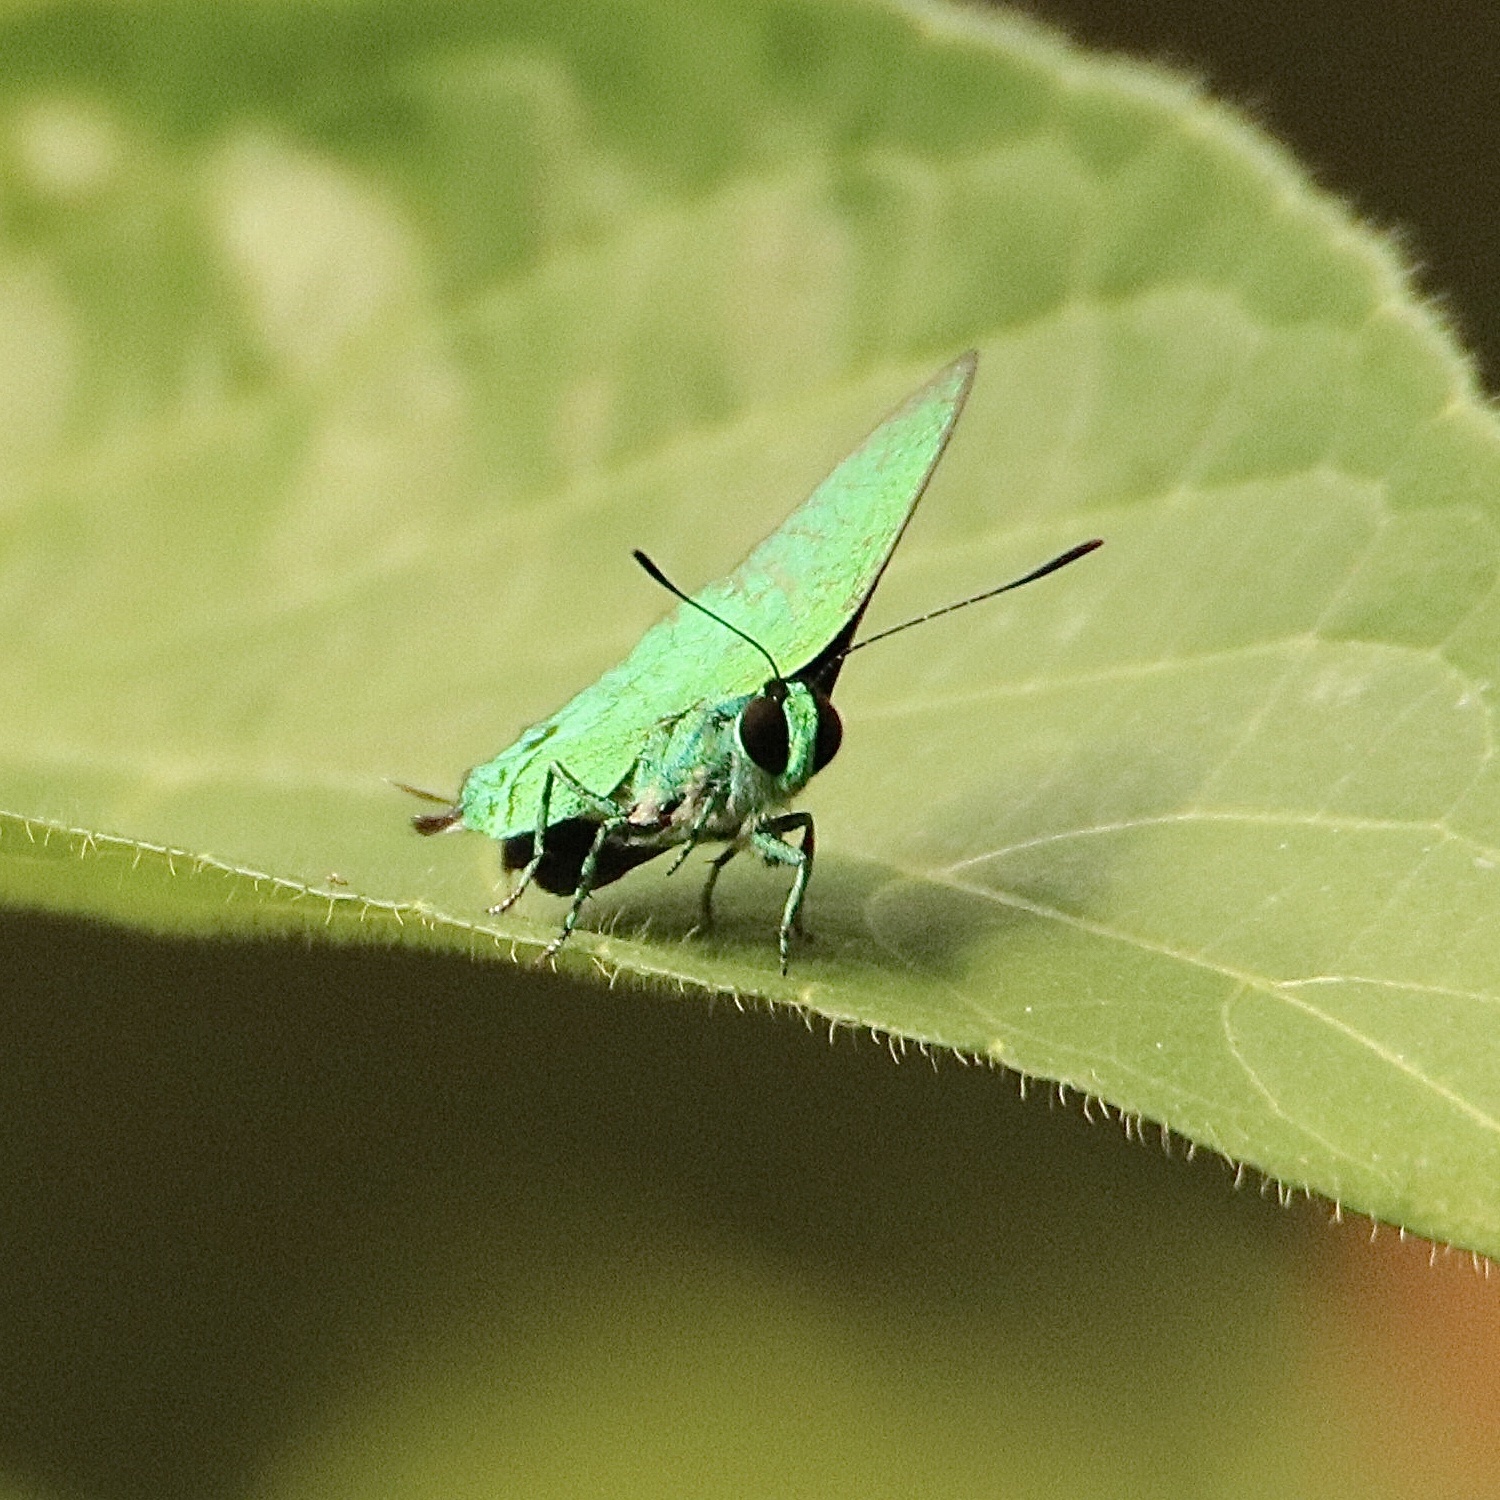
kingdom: Animalia
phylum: Arthropoda
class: Insecta
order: Lepidoptera
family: Lycaenidae
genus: Chalybs
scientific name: Chalybs cecina
